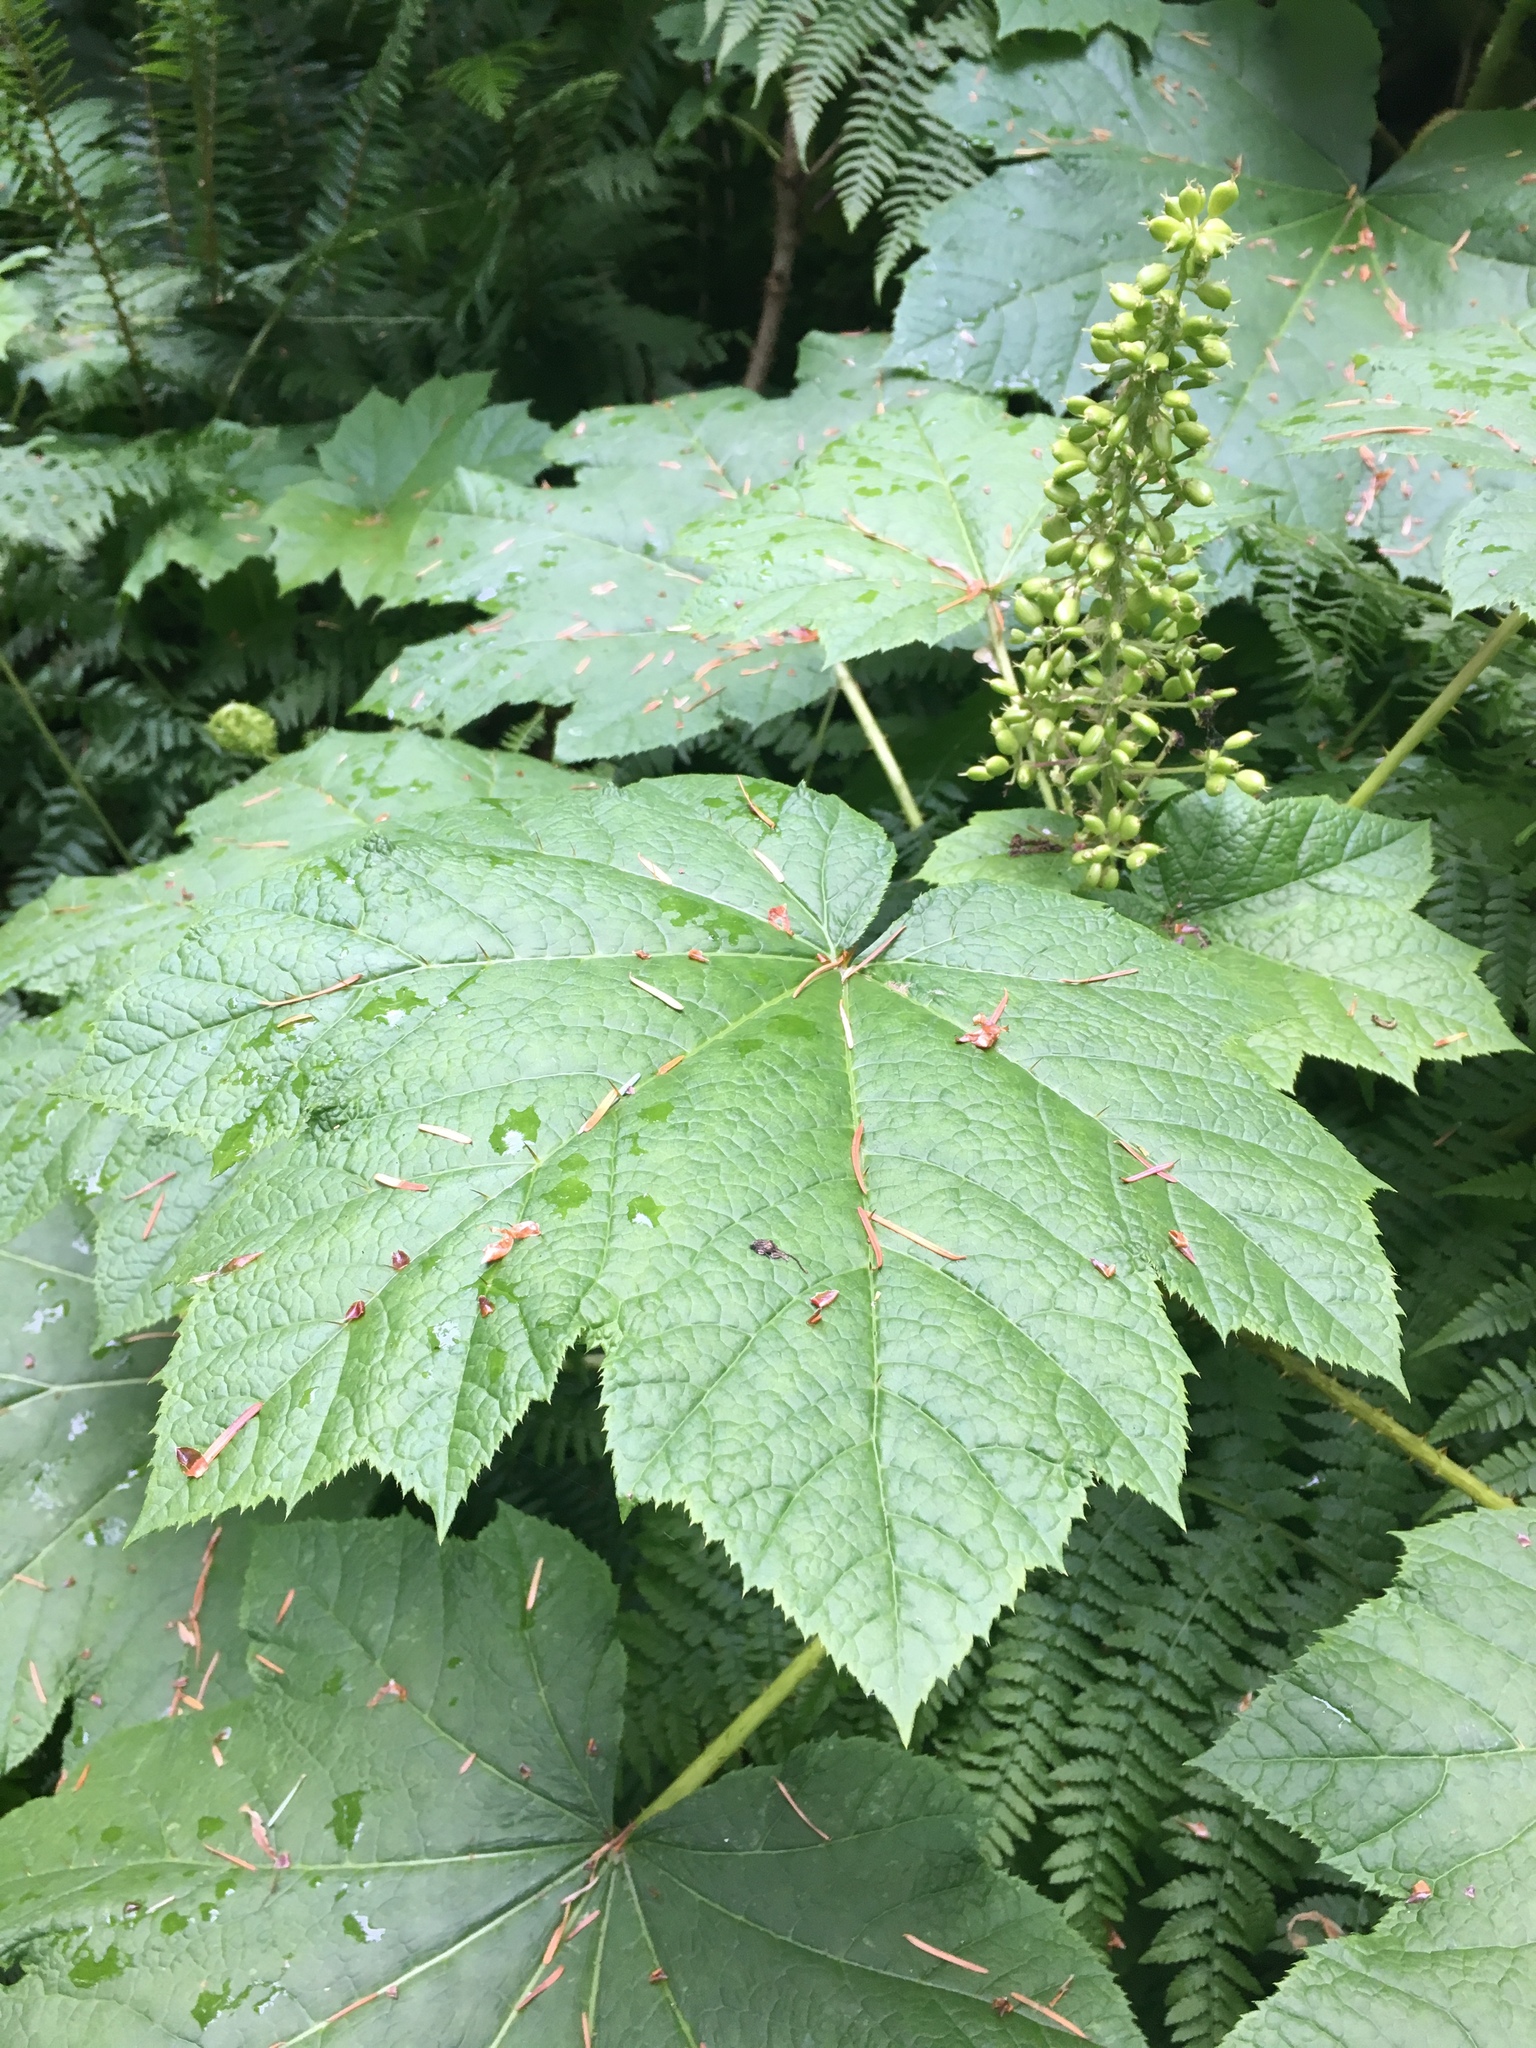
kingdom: Plantae
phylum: Tracheophyta
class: Magnoliopsida
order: Apiales
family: Araliaceae
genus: Oplopanax
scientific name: Oplopanax horridus
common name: Devil's walking-stick
